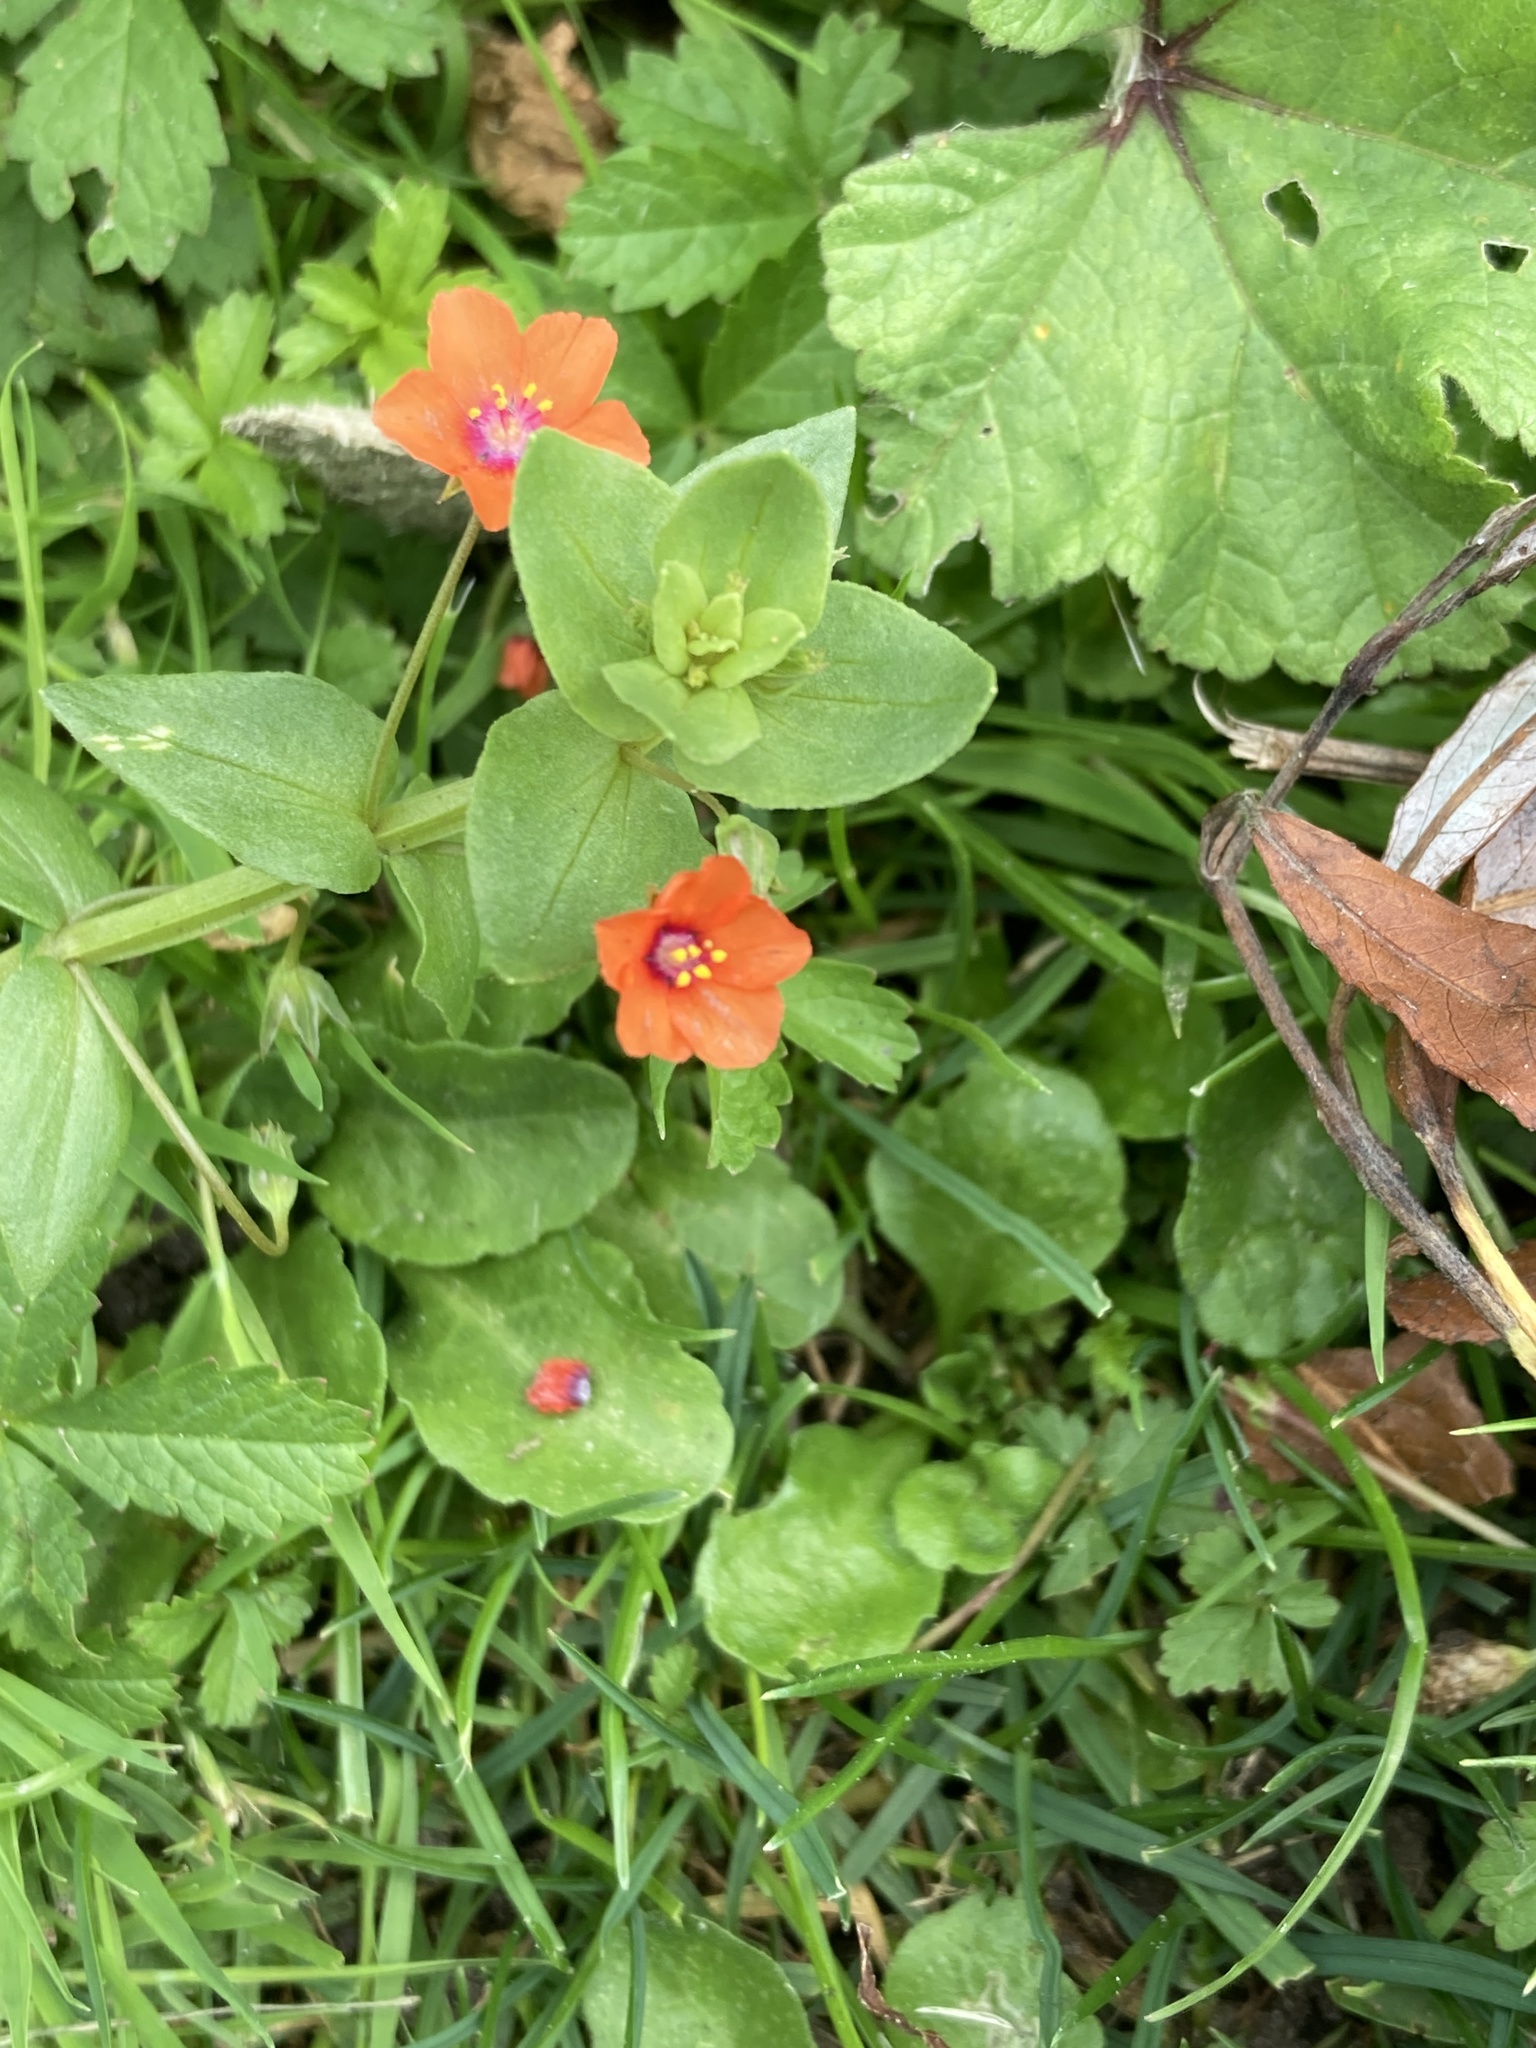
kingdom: Plantae
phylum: Tracheophyta
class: Magnoliopsida
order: Ericales
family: Primulaceae
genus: Lysimachia
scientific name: Lysimachia arvensis
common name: Scarlet pimpernel
